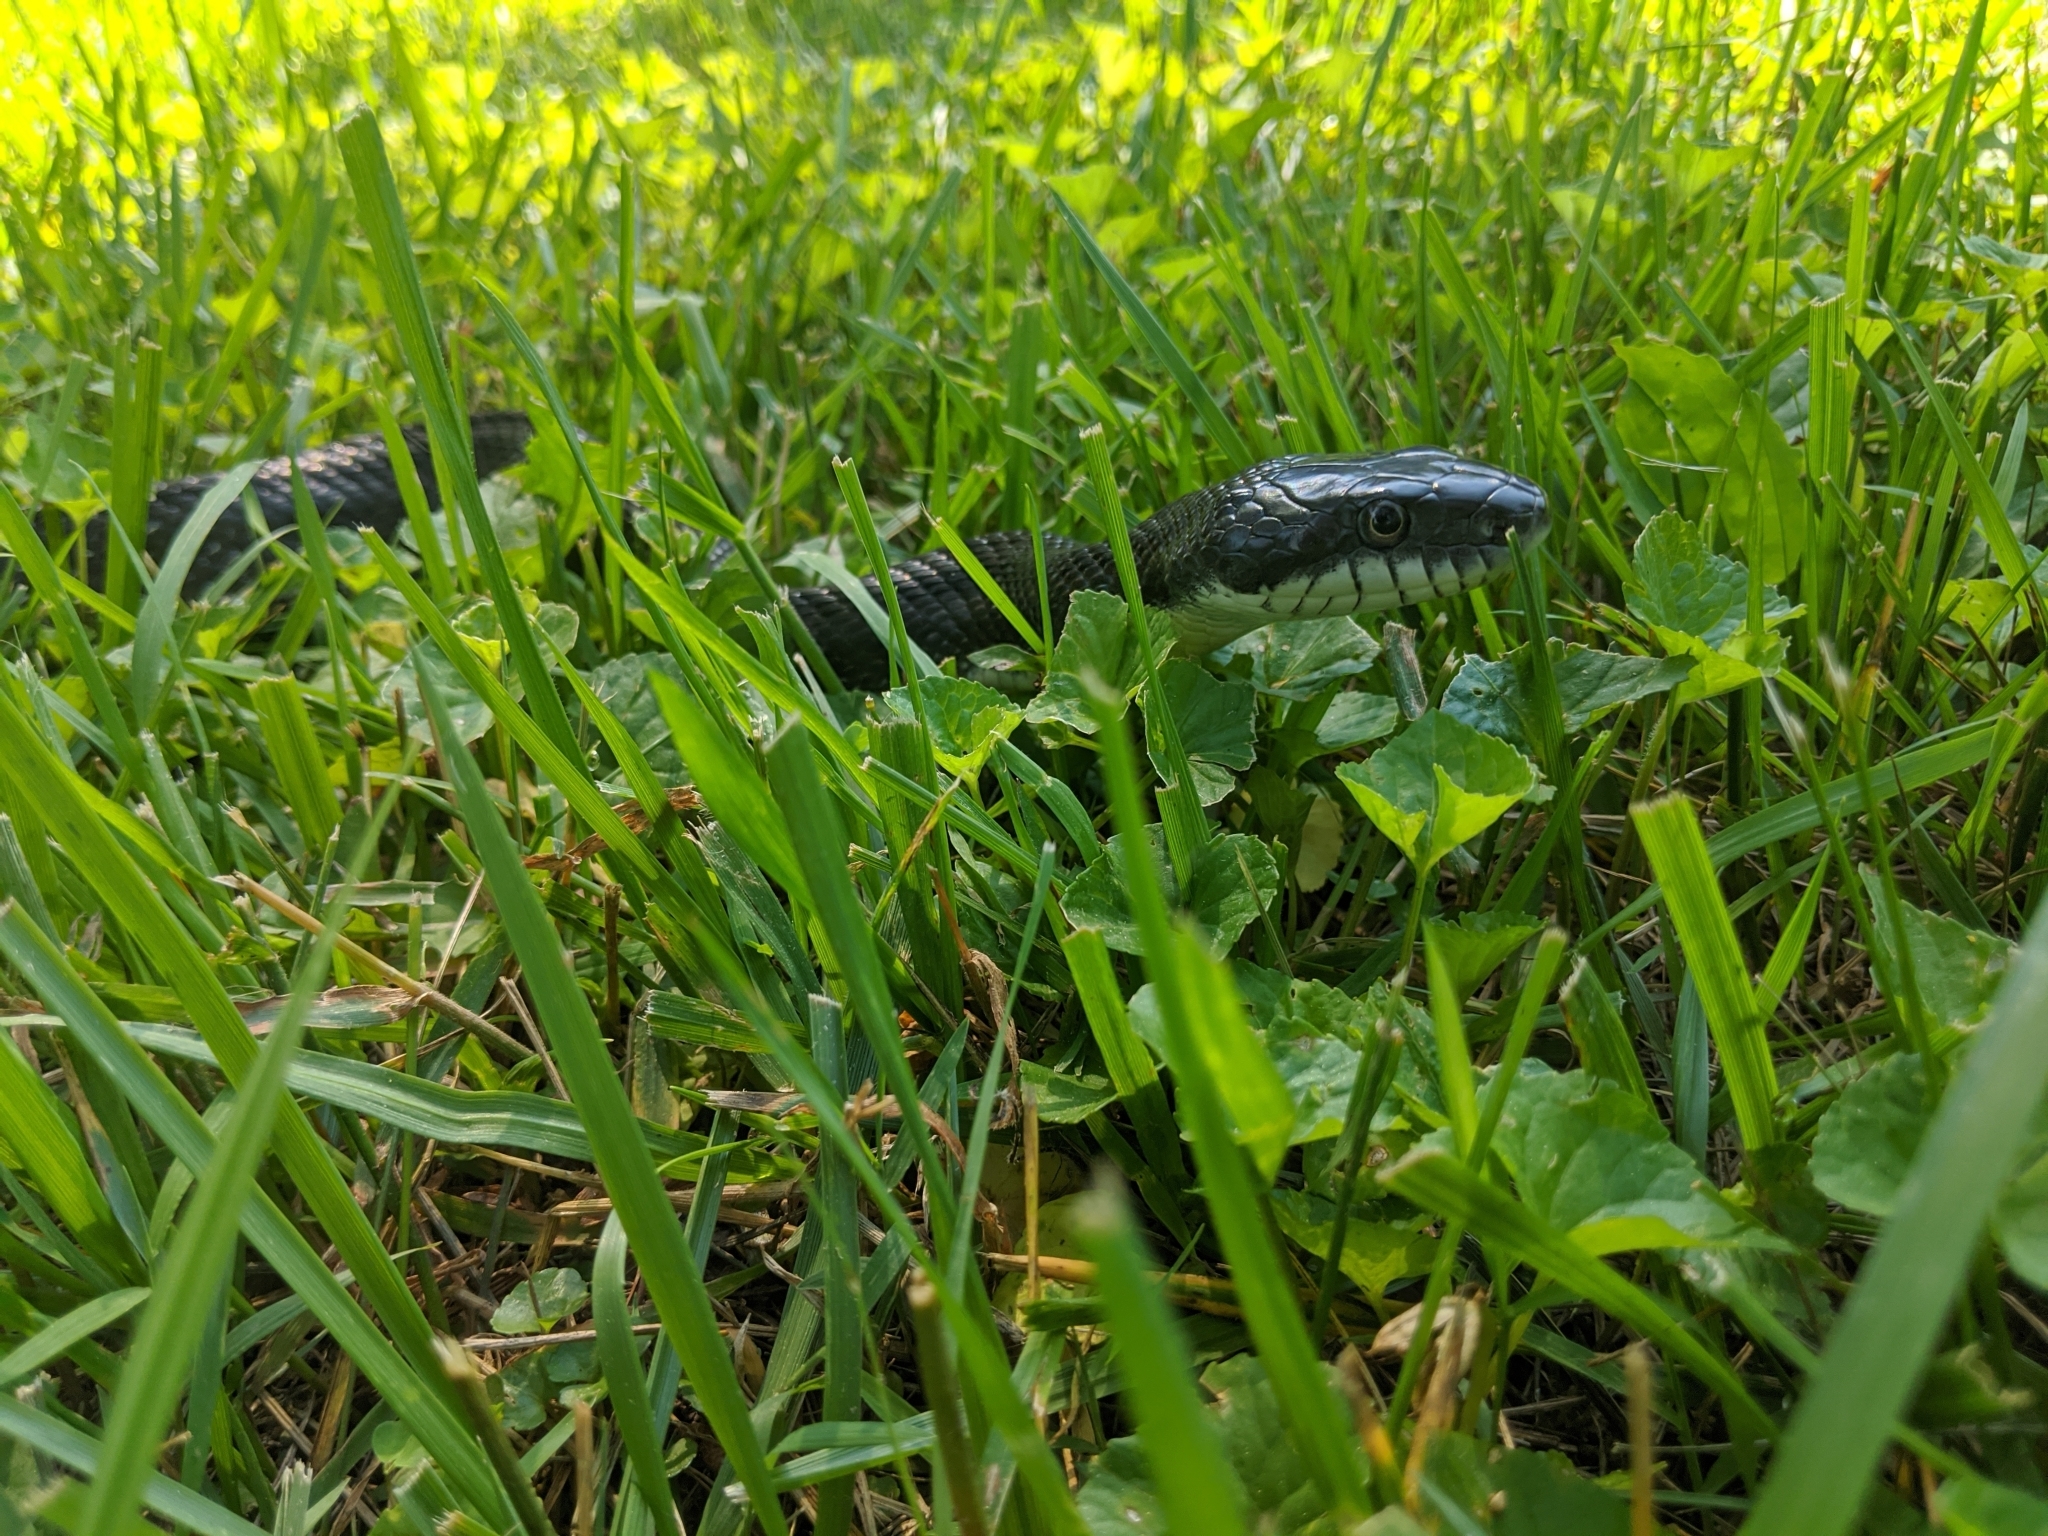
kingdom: Animalia
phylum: Chordata
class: Squamata
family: Colubridae
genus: Pantherophis
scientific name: Pantherophis alleghaniensis
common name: Eastern rat snake
